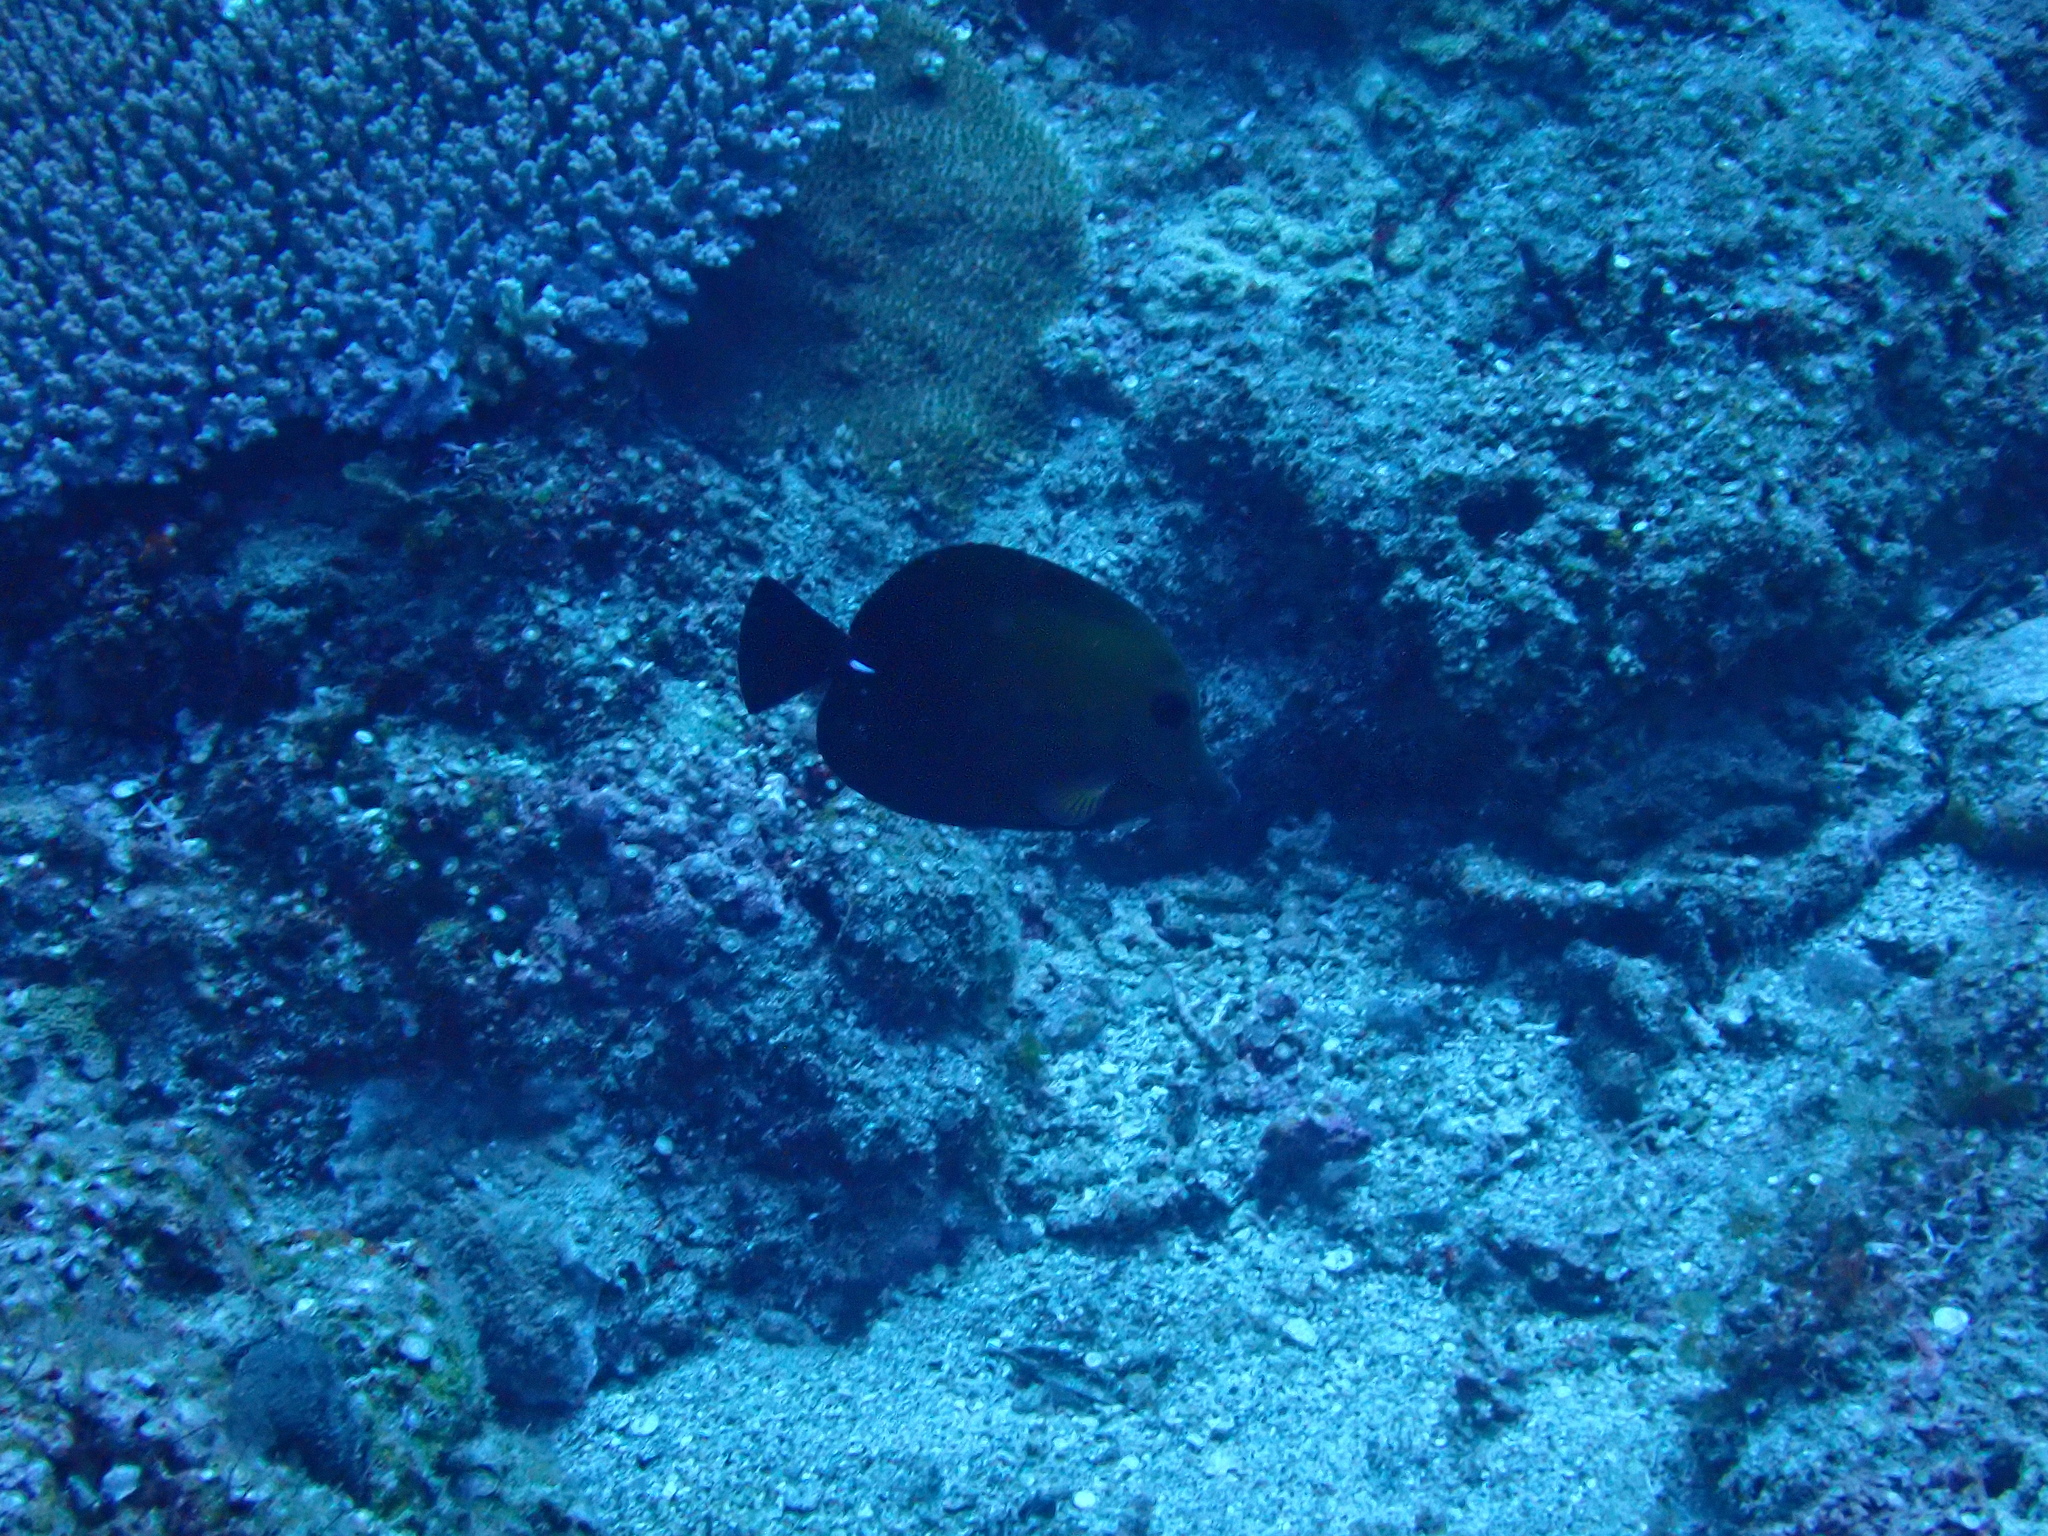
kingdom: Animalia
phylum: Chordata
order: Perciformes
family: Acanthuridae
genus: Zebrasoma
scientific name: Zebrasoma scopas
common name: Twotone tang
